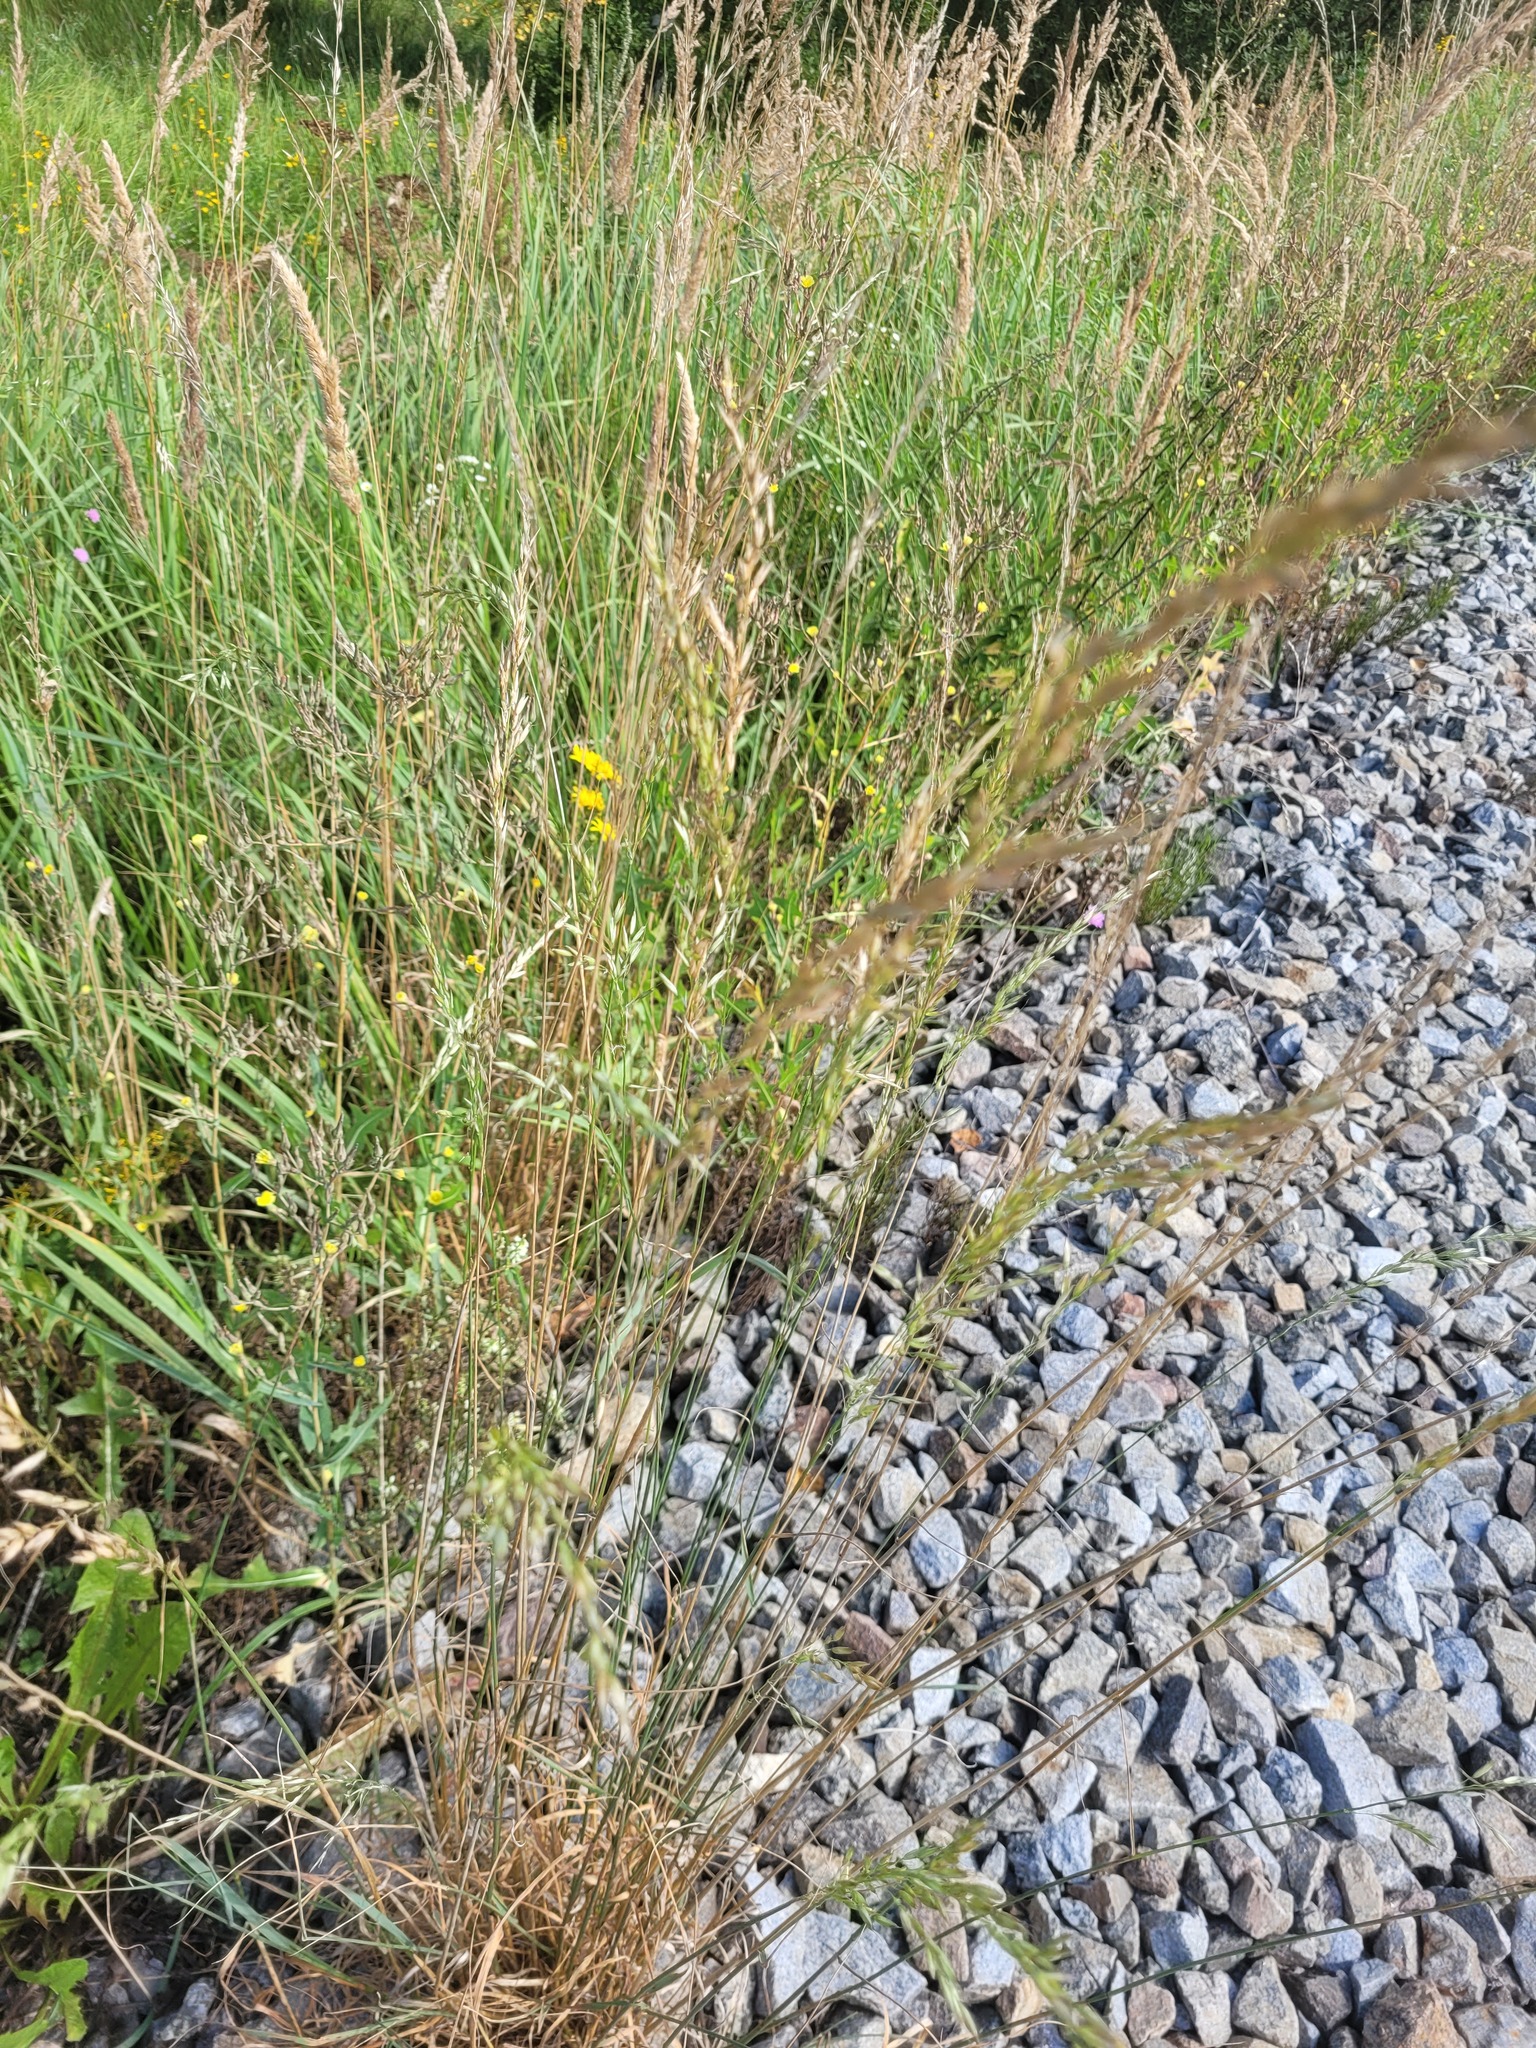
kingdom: Plantae
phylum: Tracheophyta
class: Liliopsida
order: Poales
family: Poaceae
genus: Arrhenatherum
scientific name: Arrhenatherum elatius
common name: Tall oatgrass
